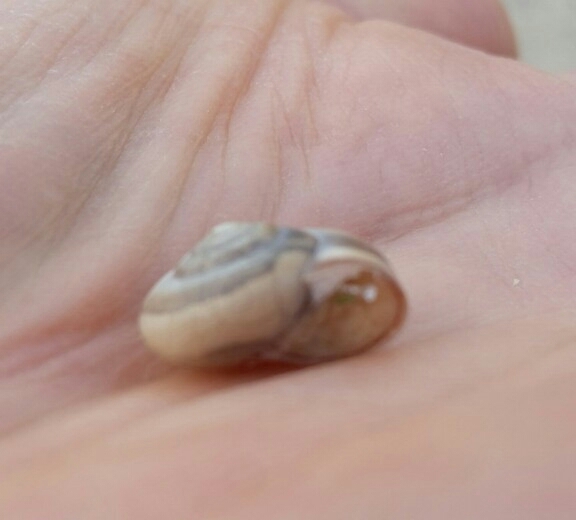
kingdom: Animalia
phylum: Mollusca
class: Gastropoda
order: Stylommatophora
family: Hygromiidae
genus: Monacha
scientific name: Monacha cartusiana
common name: Carthusian snail
